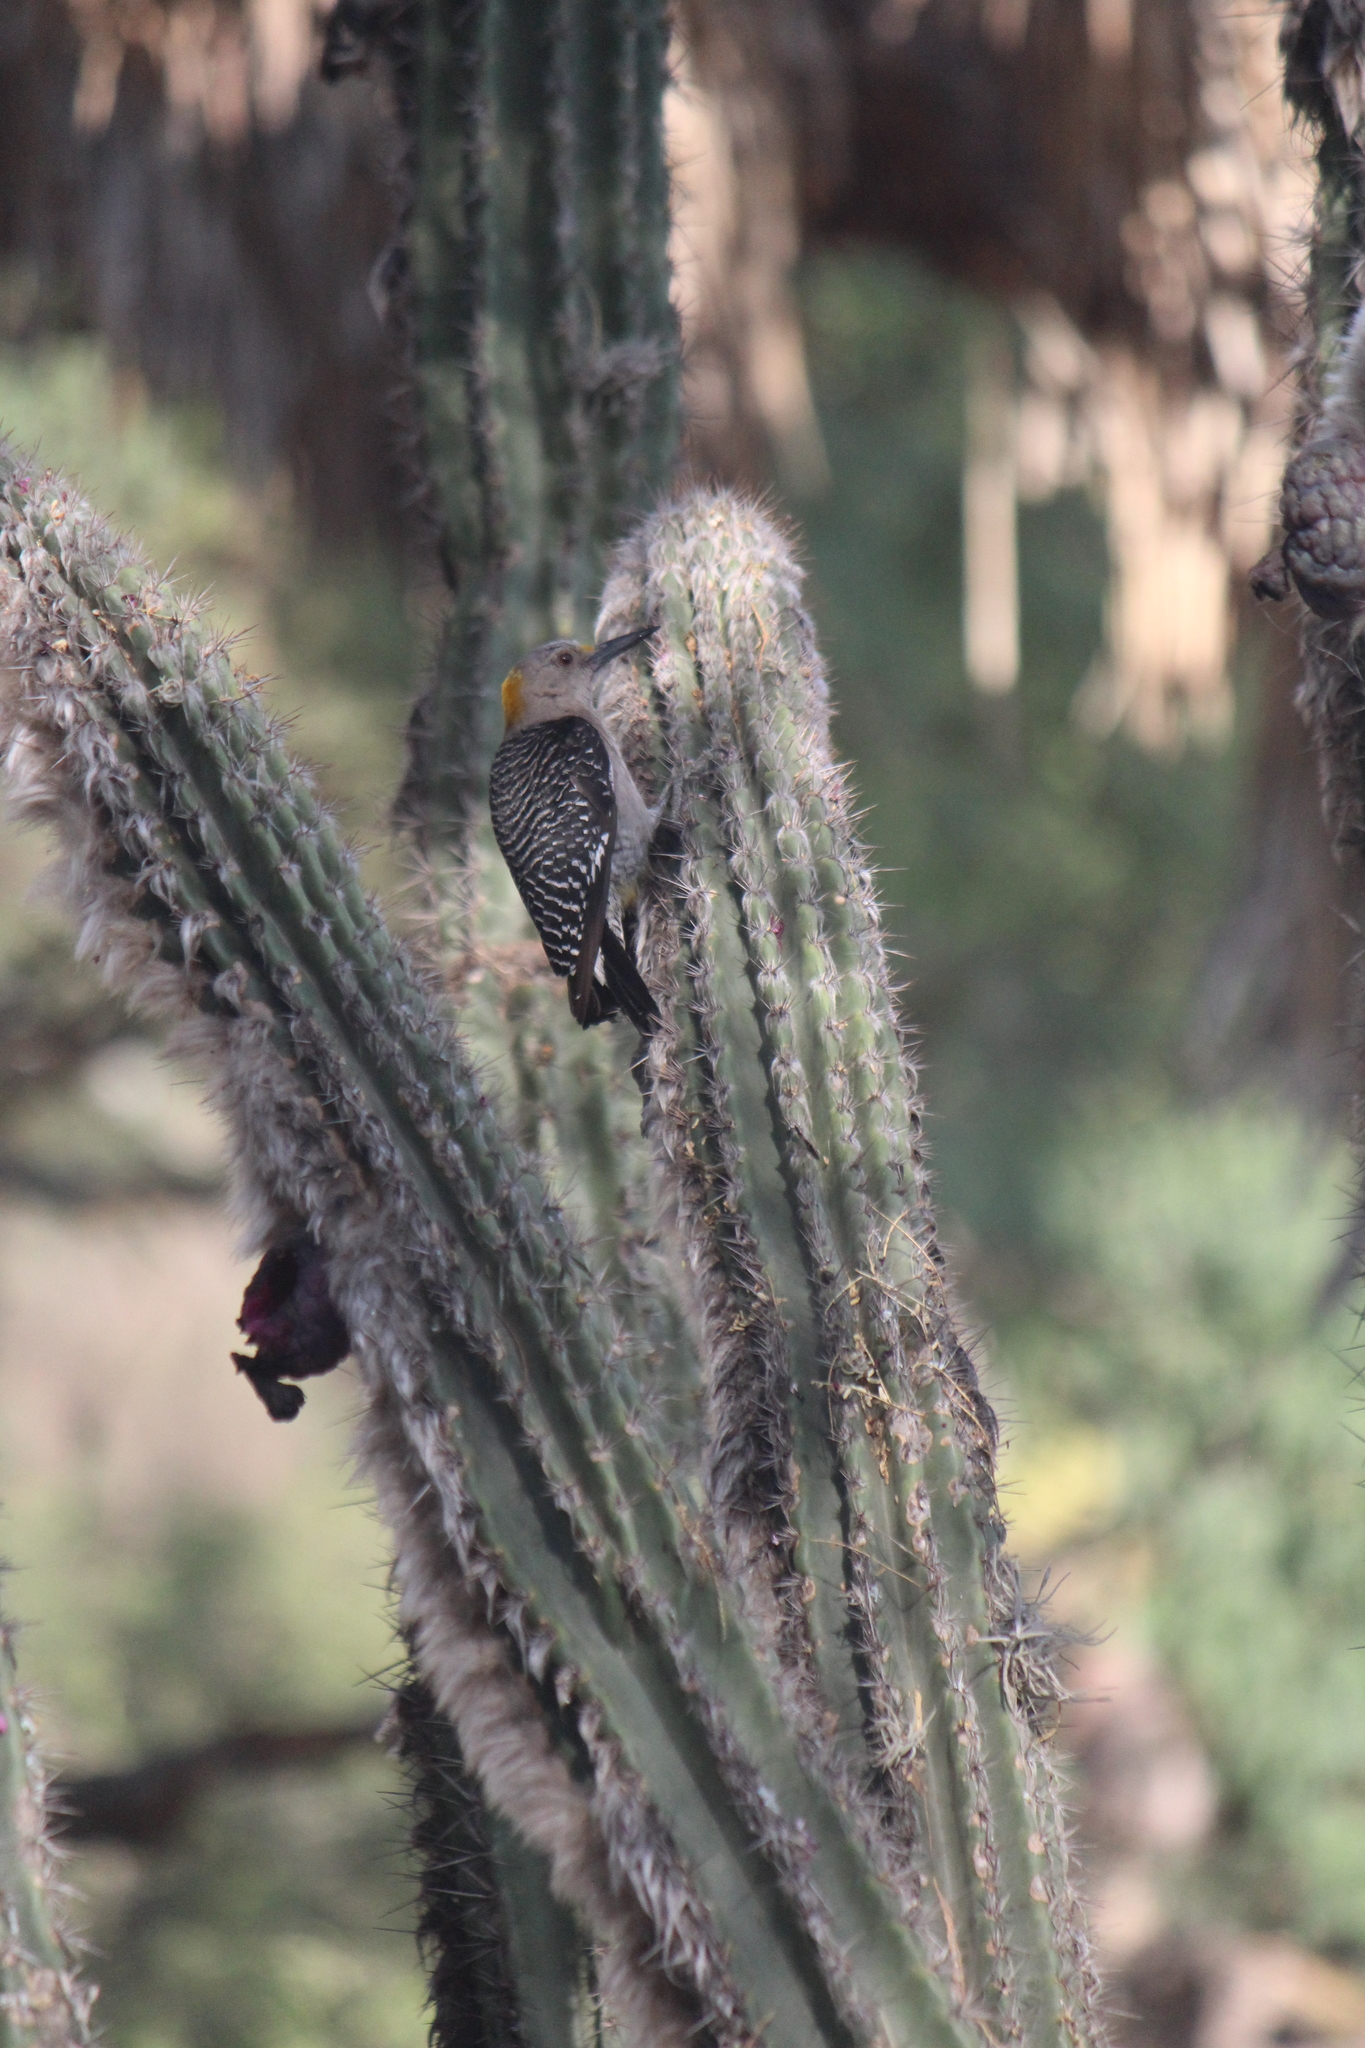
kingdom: Animalia
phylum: Chordata
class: Aves
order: Piciformes
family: Picidae
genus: Melanerpes
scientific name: Melanerpes aurifrons
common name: Golden-fronted woodpecker
